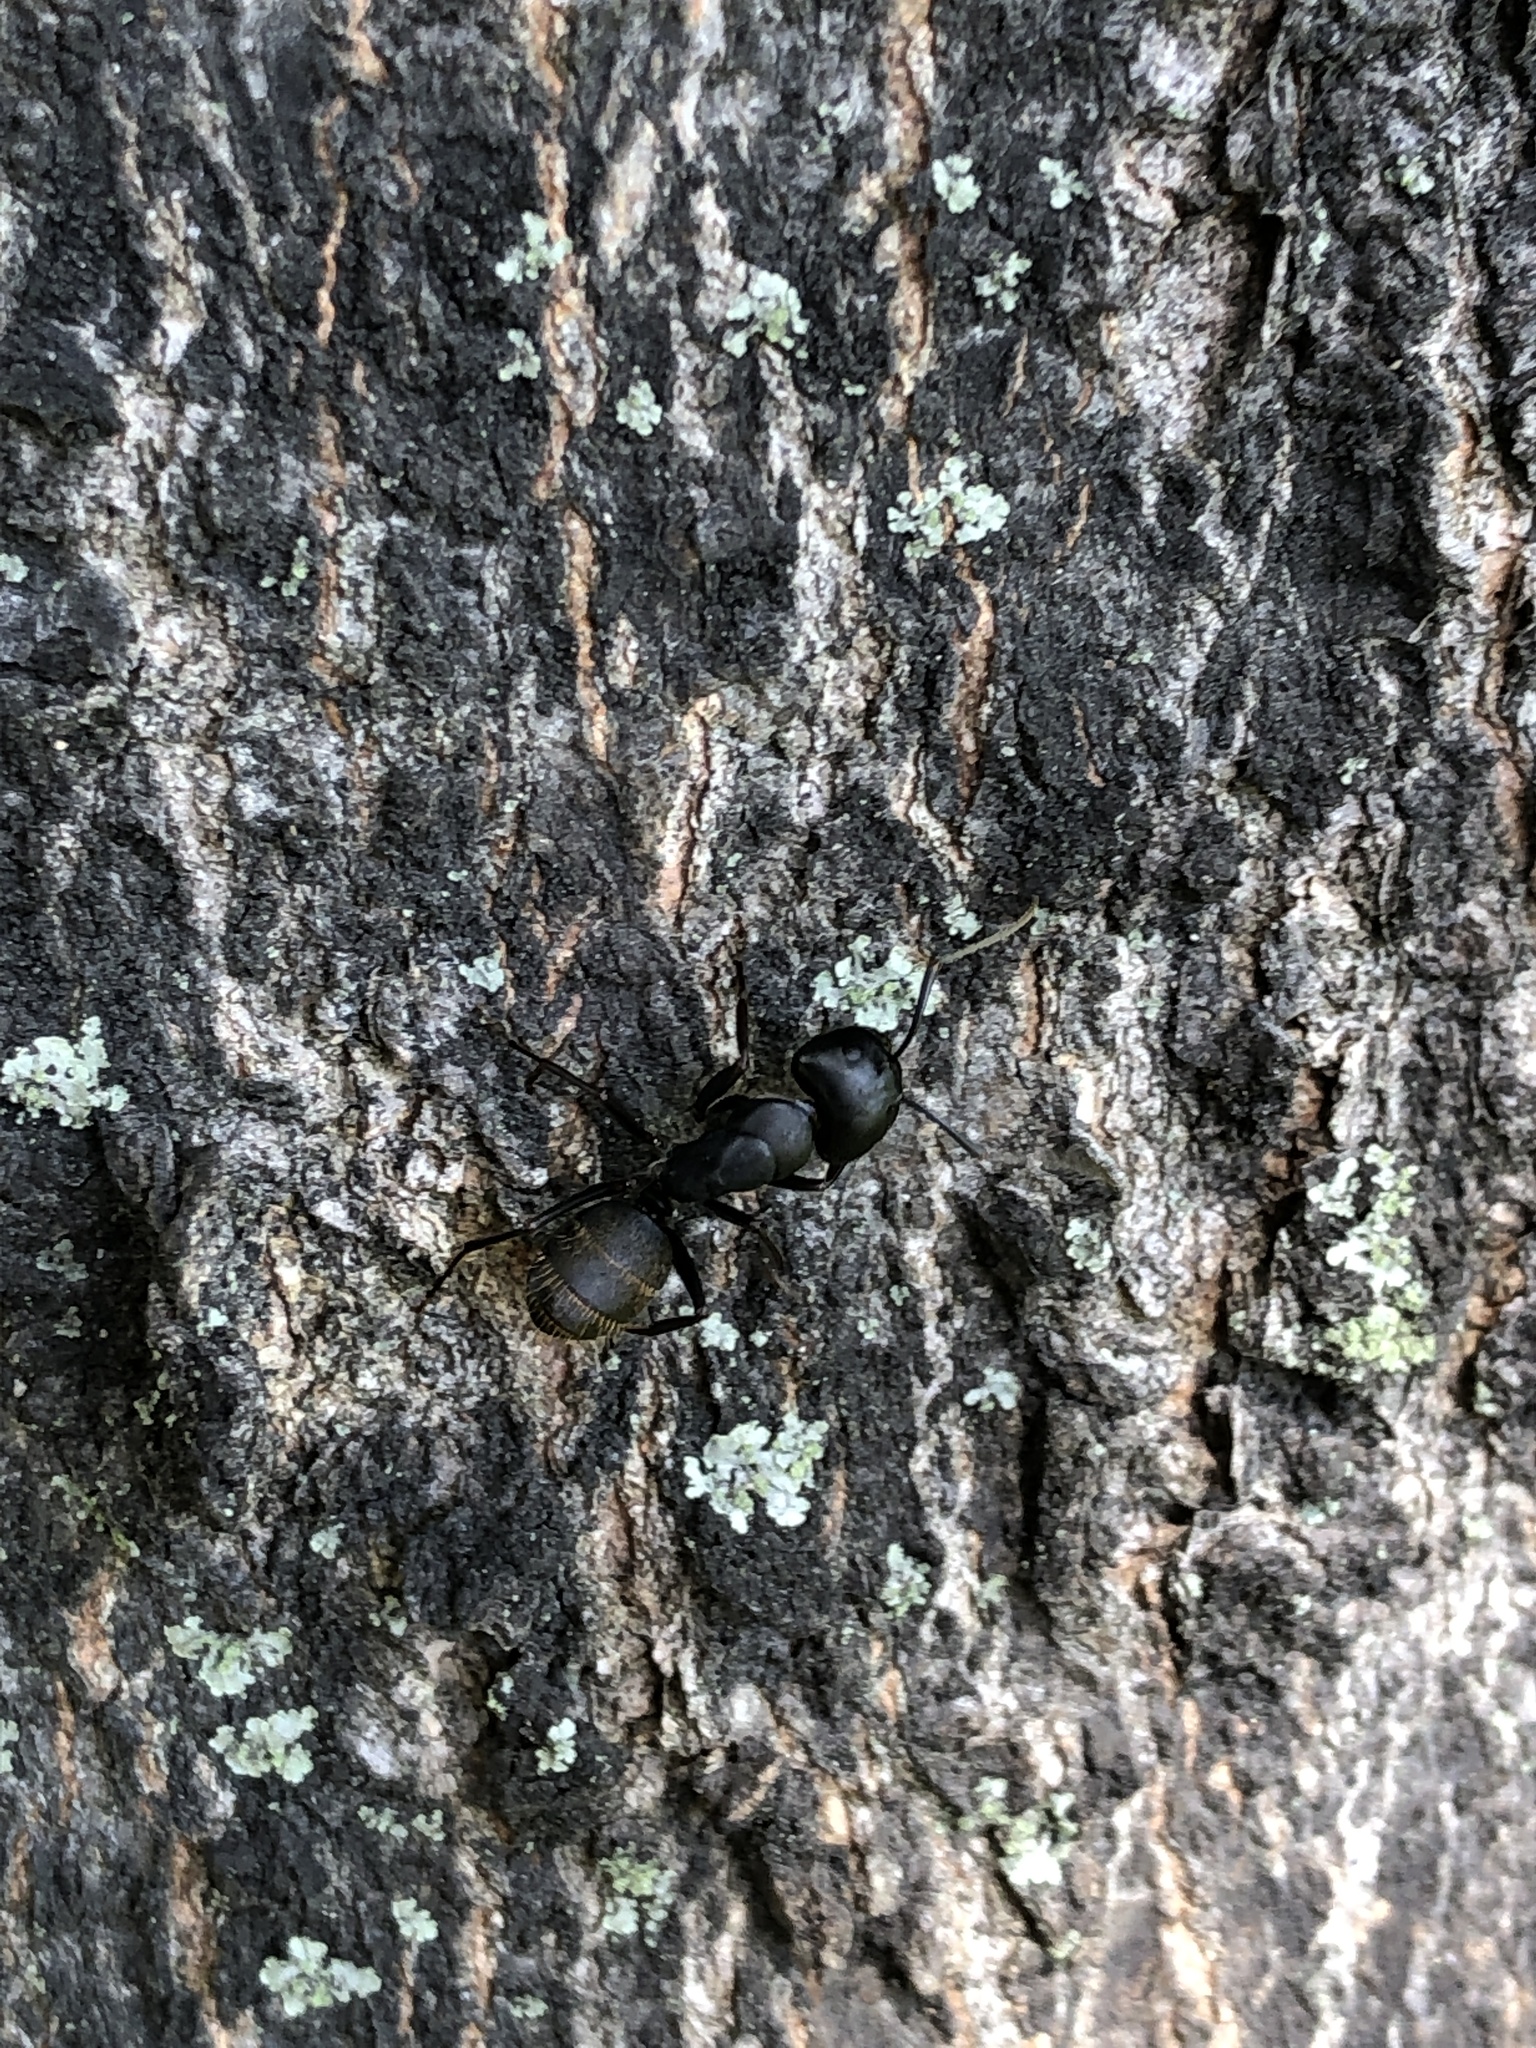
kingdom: Animalia
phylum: Arthropoda
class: Insecta
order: Hymenoptera
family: Formicidae
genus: Camponotus
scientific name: Camponotus japonicus
